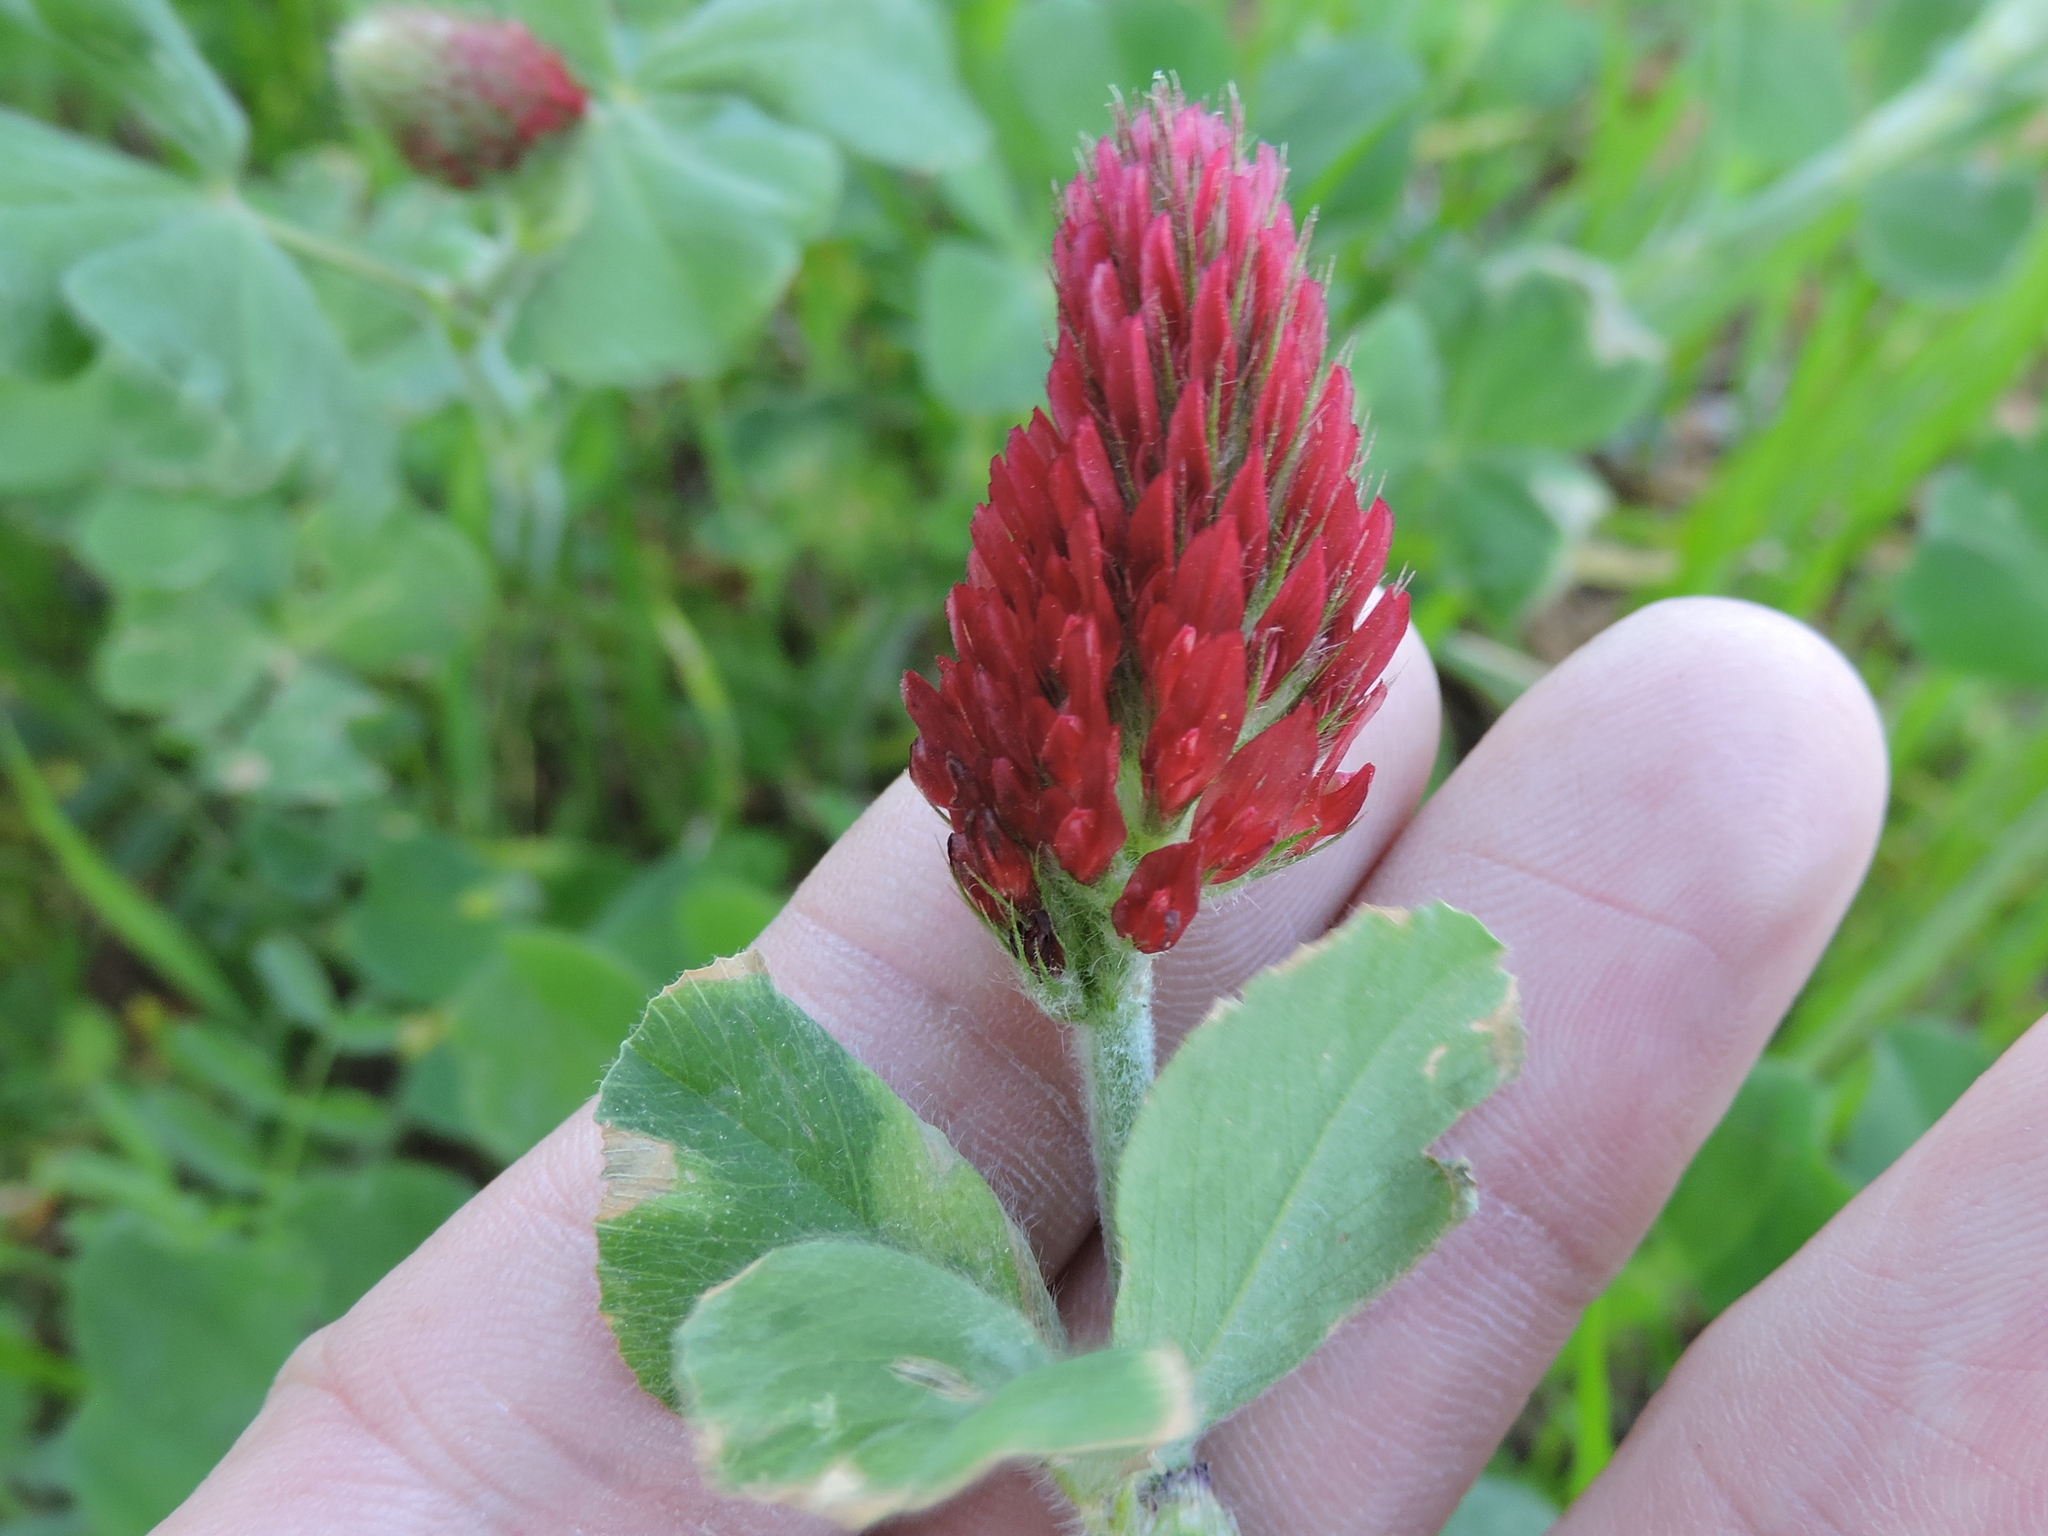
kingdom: Plantae
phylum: Tracheophyta
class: Magnoliopsida
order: Fabales
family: Fabaceae
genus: Trifolium
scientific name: Trifolium incarnatum
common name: Crimson clover
